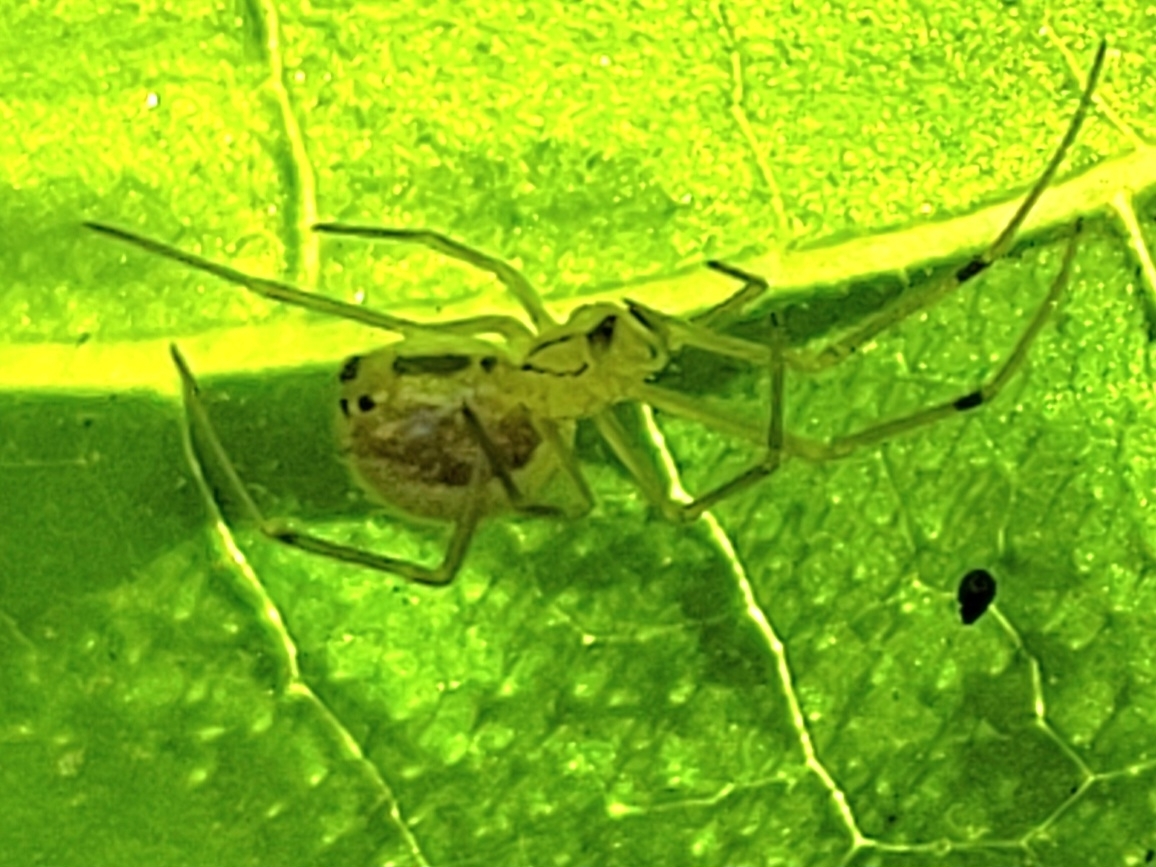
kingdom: Animalia
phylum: Arthropoda
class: Arachnida
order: Araneae
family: Theridiidae
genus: Enoplognatha
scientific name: Enoplognatha
